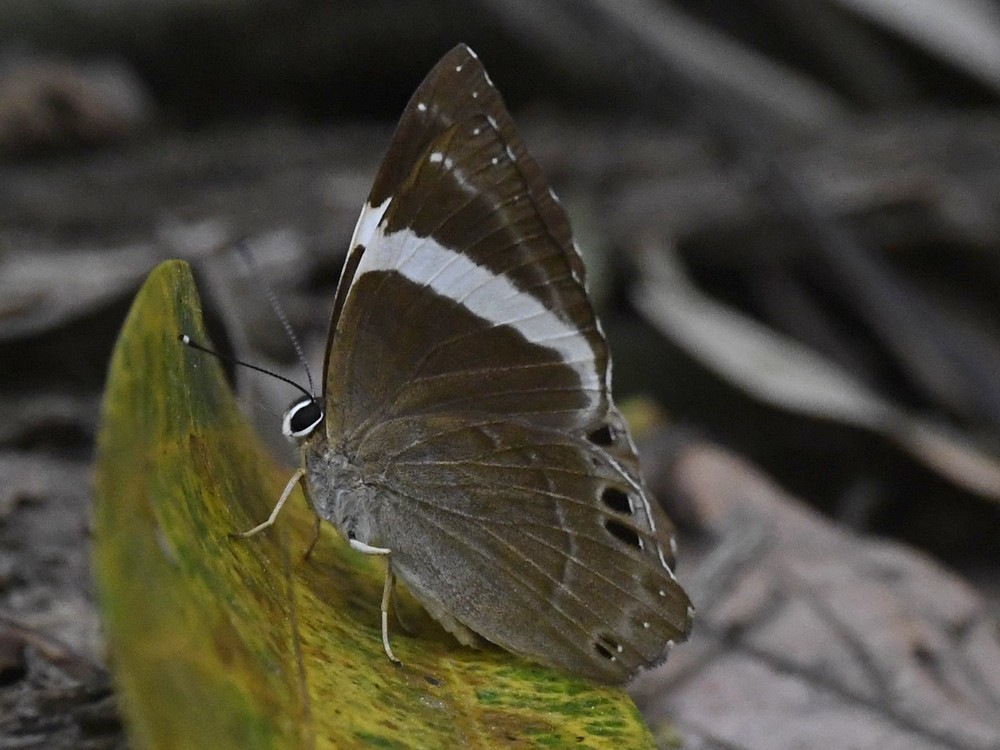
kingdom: Animalia
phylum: Arthropoda
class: Insecta
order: Lepidoptera
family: Lycaenidae
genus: Abisara
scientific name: Abisara fylla
